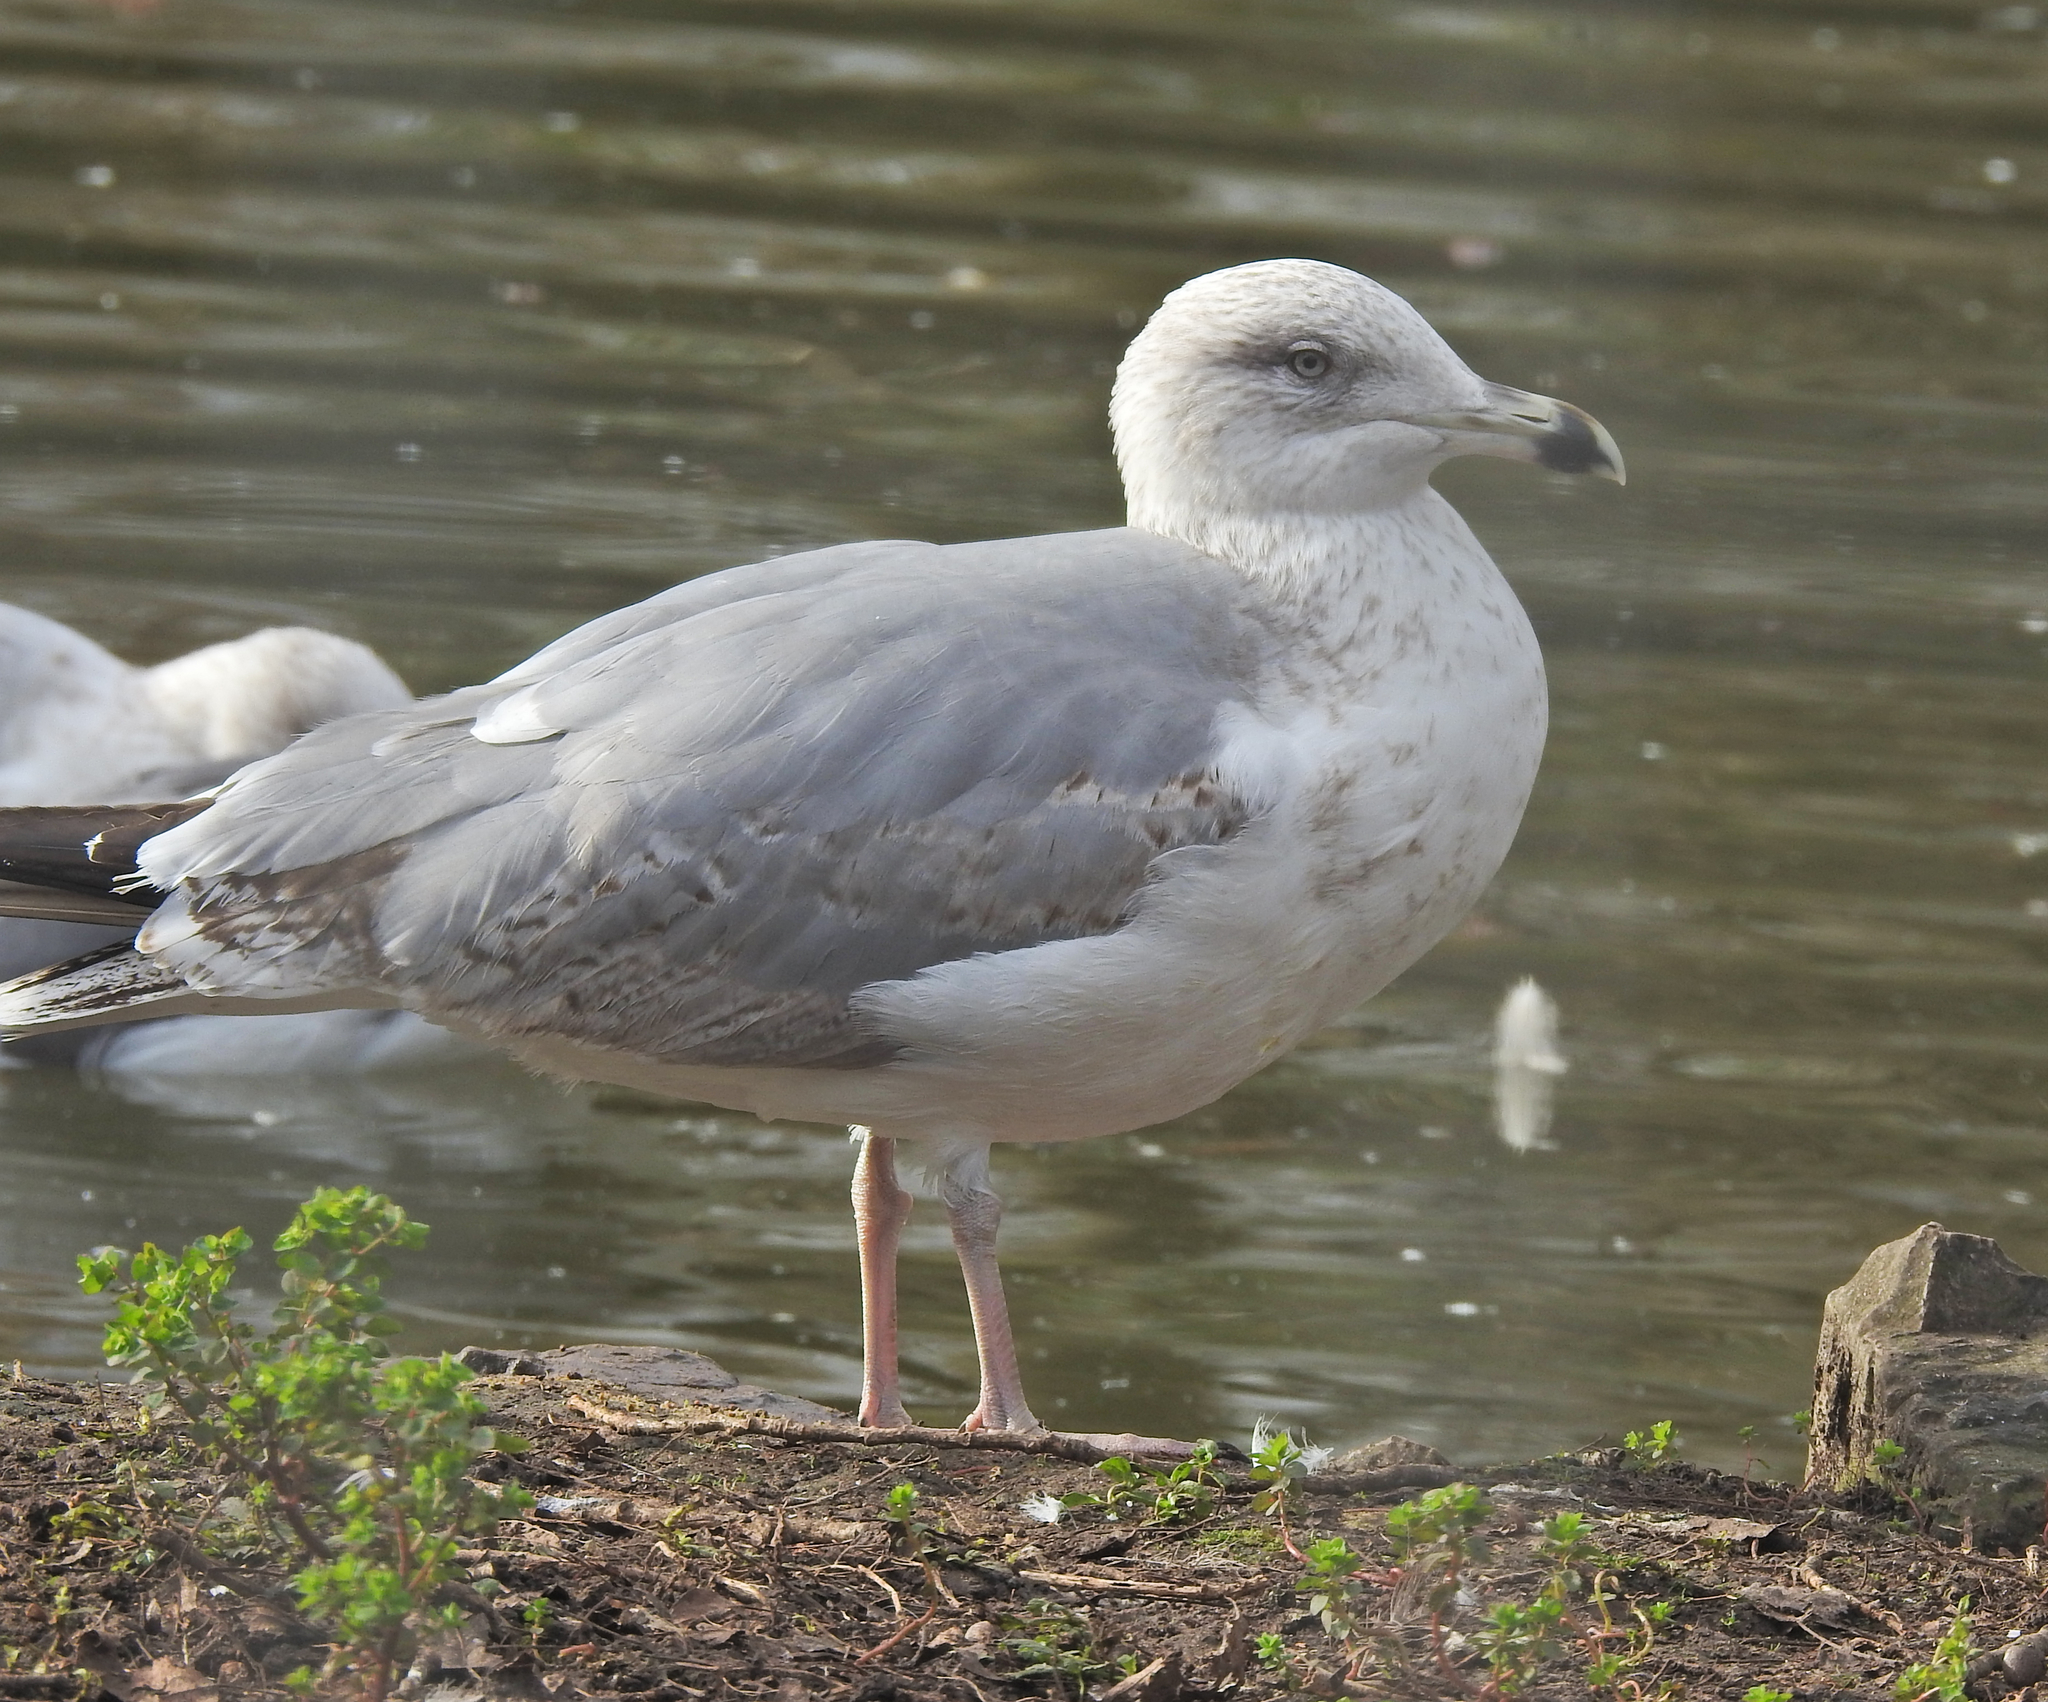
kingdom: Animalia
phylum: Chordata
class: Aves
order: Charadriiformes
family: Laridae
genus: Larus
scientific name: Larus michahellis
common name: Yellow-legged gull
